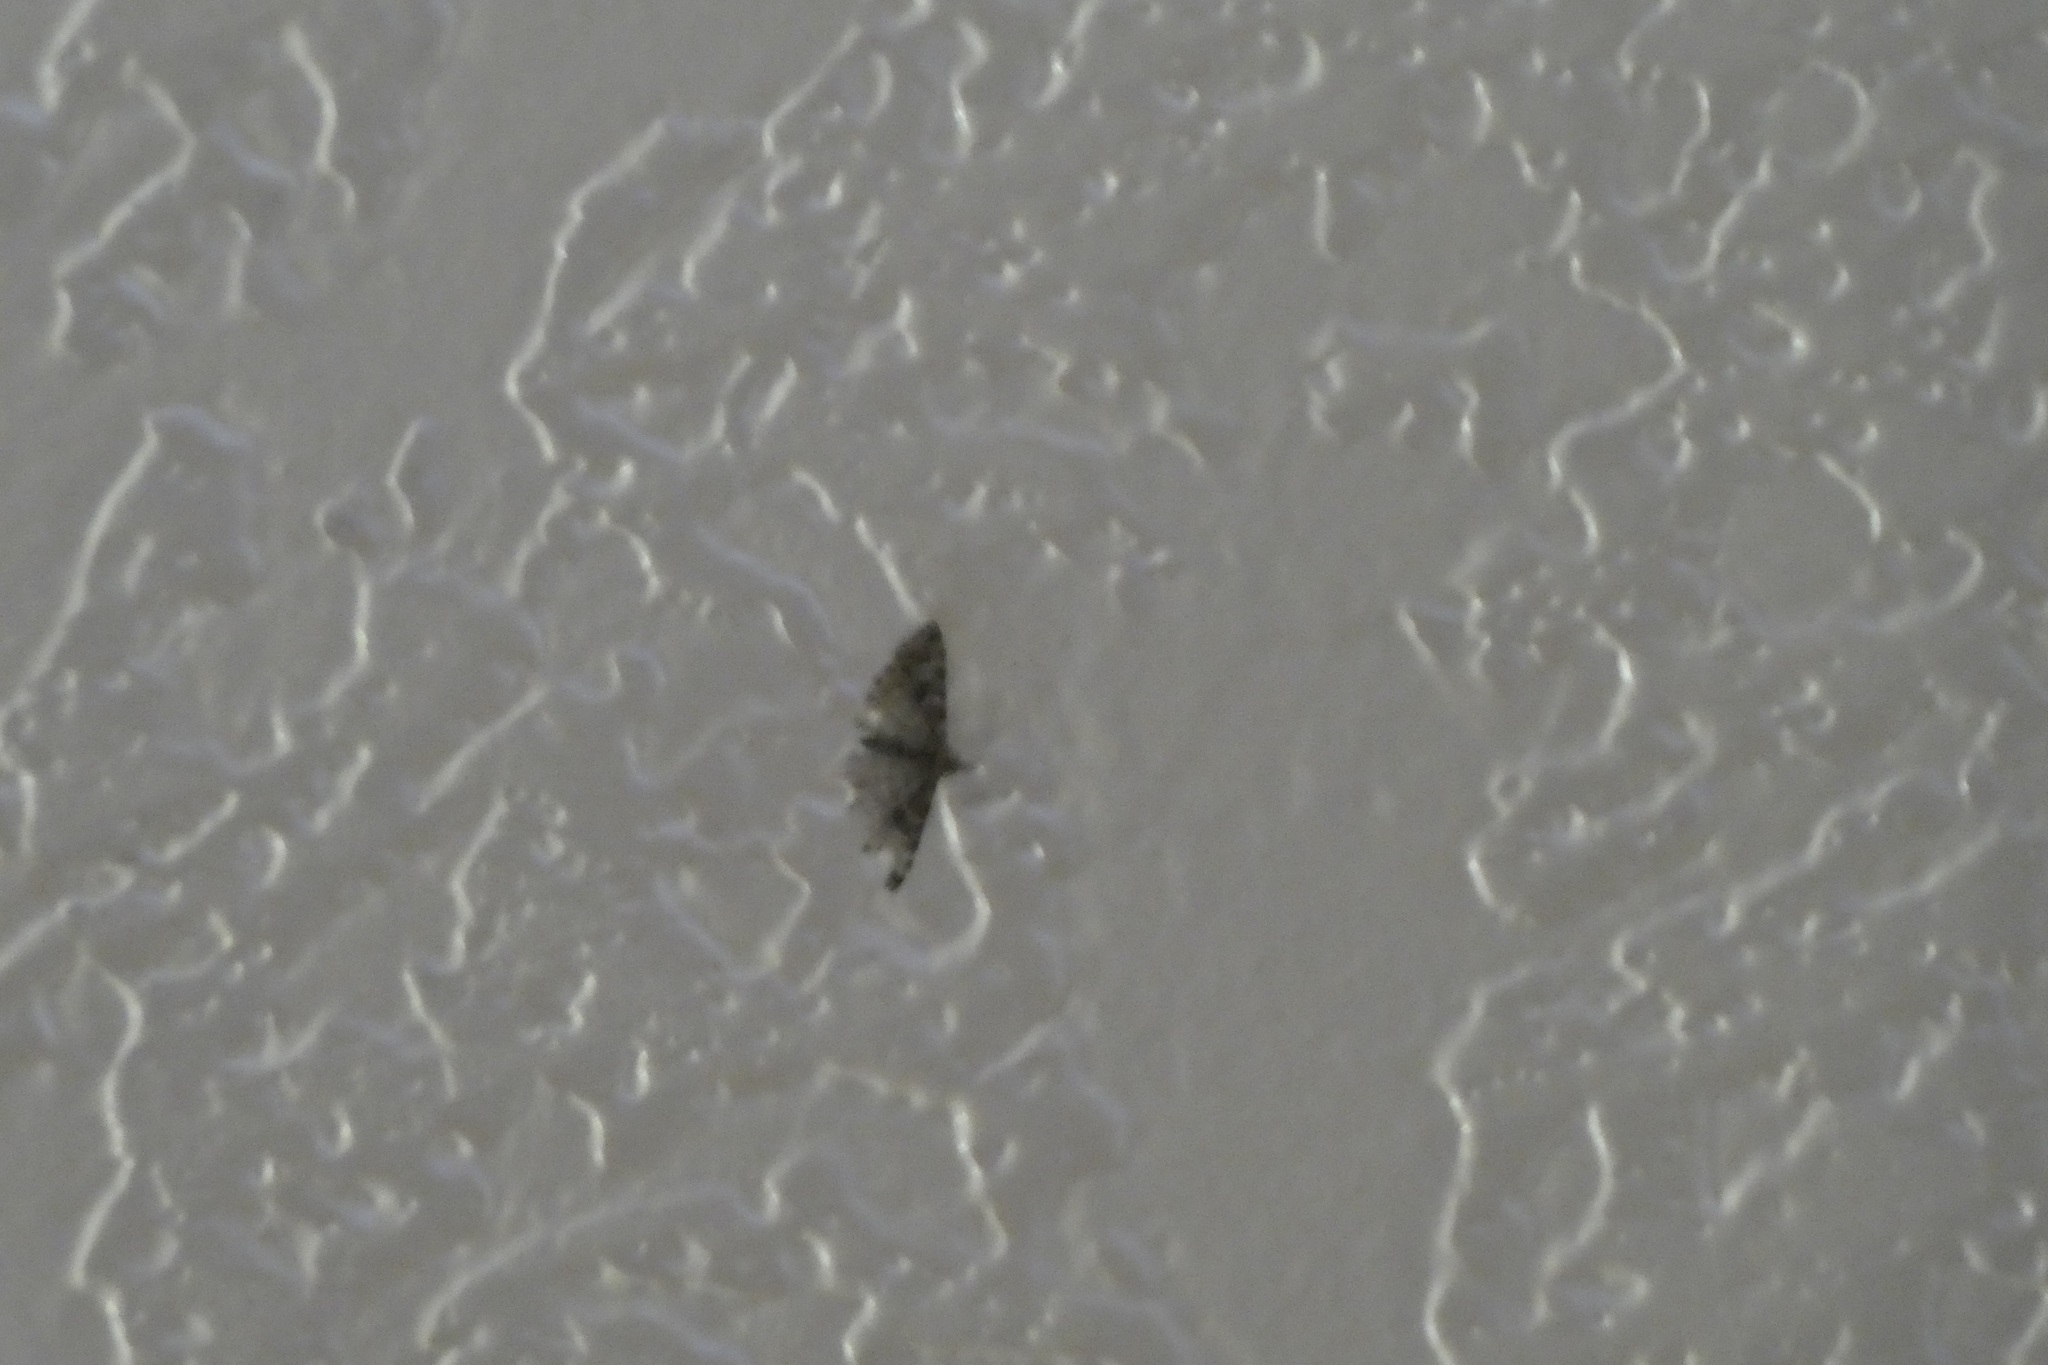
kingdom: Animalia
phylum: Arthropoda
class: Insecta
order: Lepidoptera
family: Alucitidae
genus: Alucita
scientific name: Alucita montana
